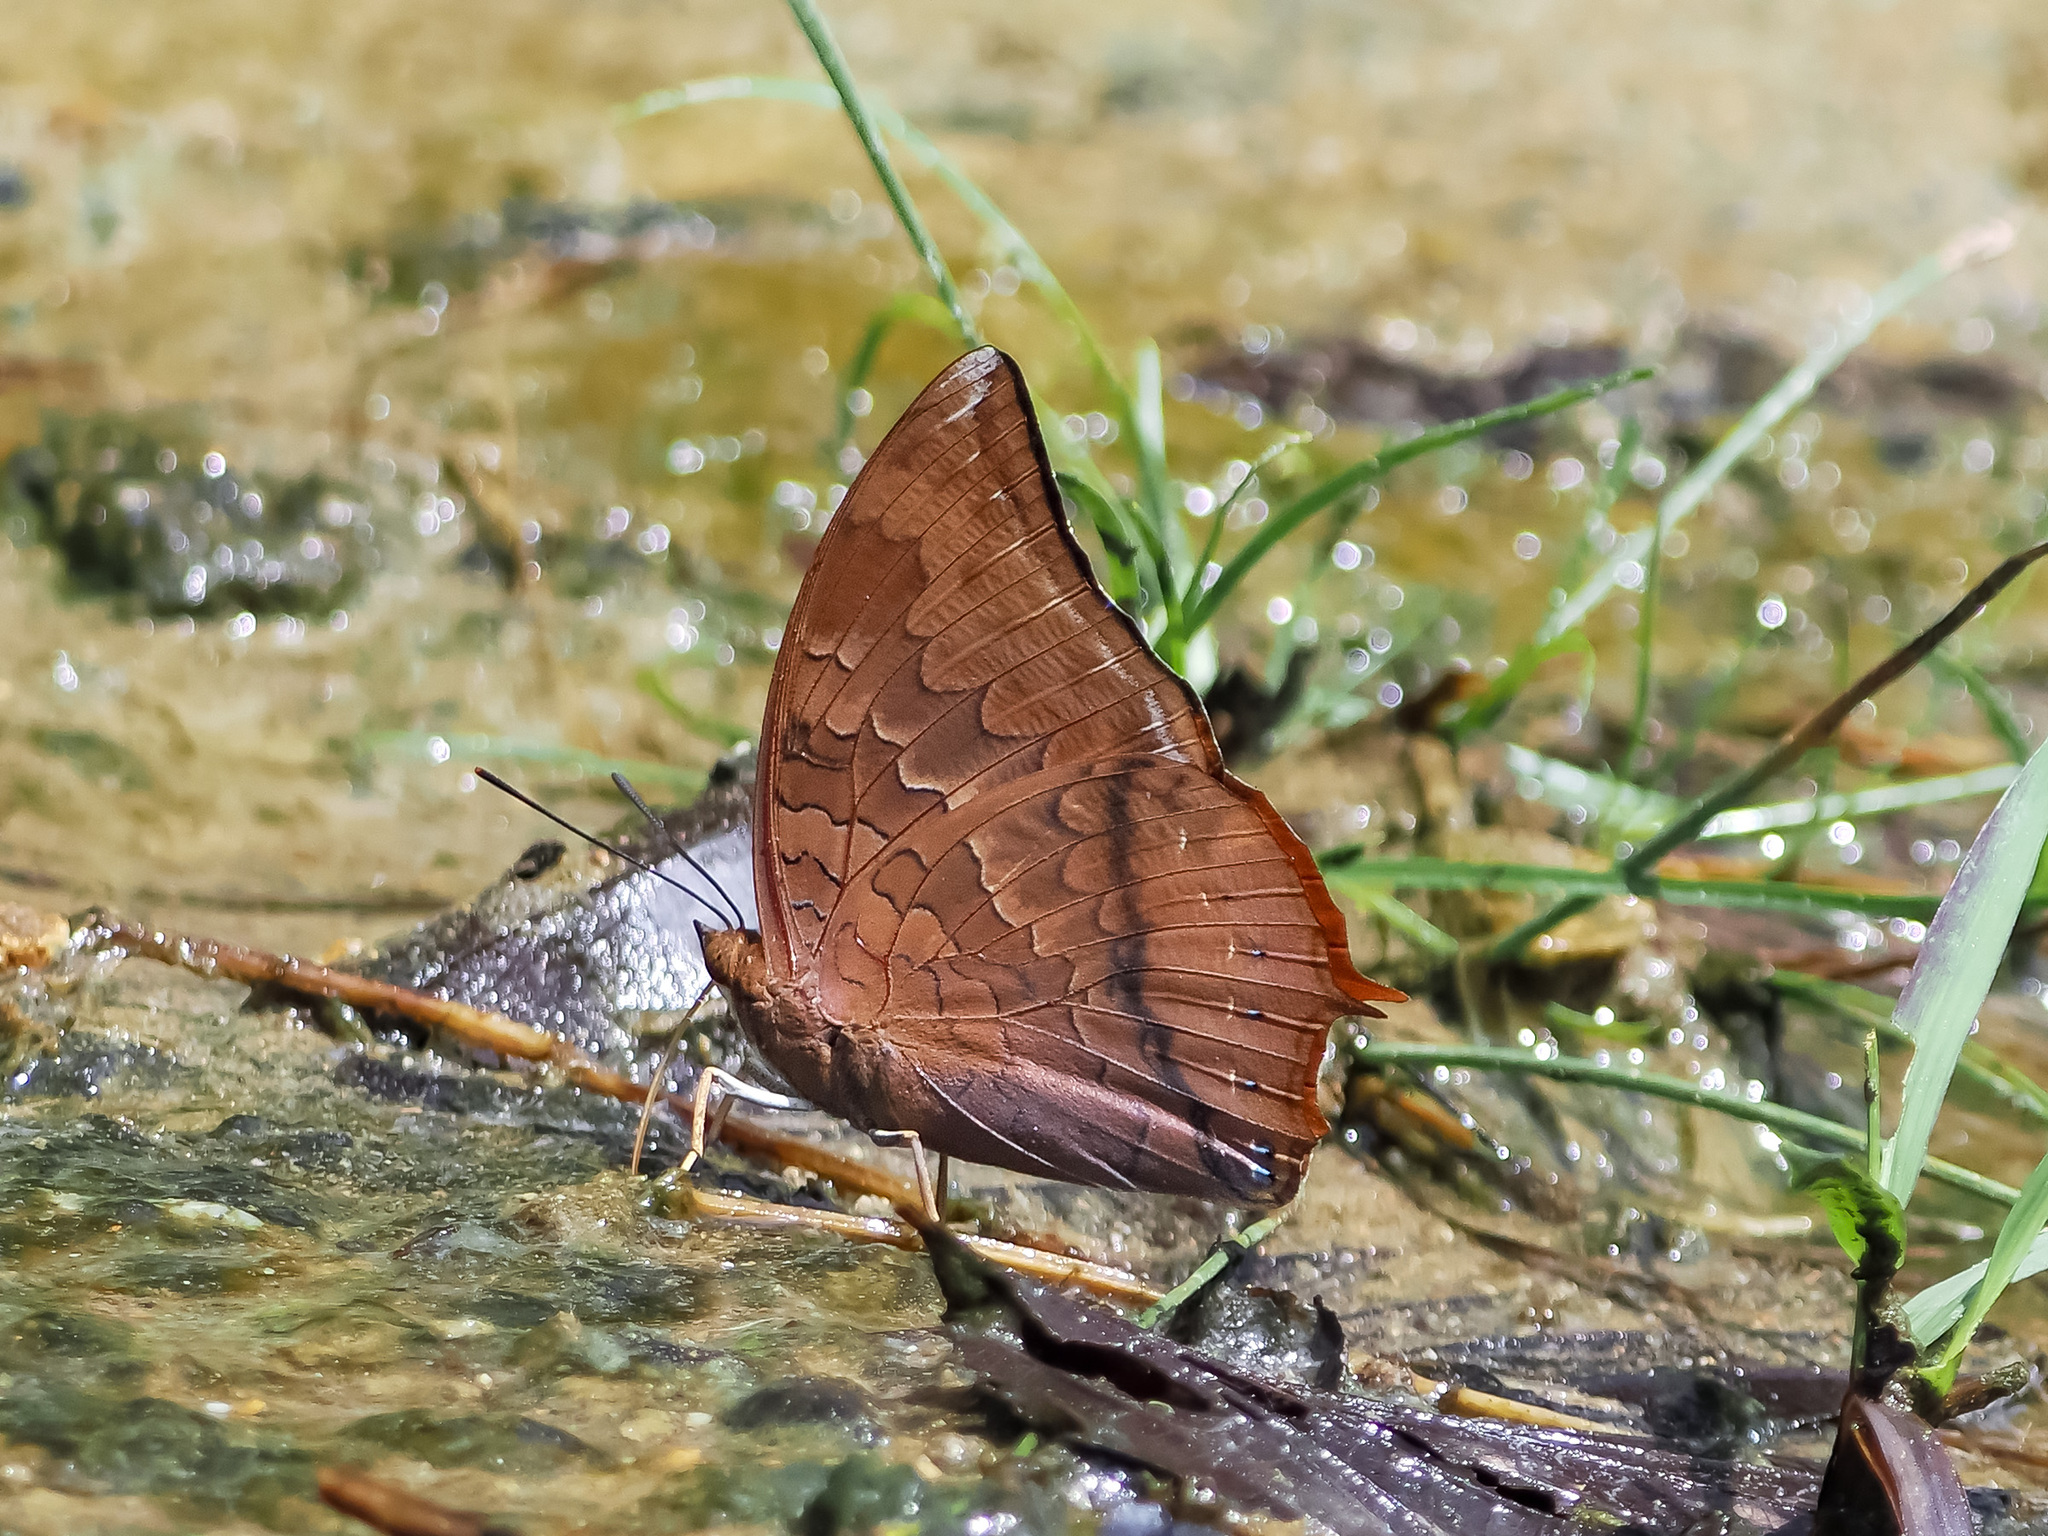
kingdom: Animalia
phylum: Arthropoda
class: Insecta
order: Lepidoptera
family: Nymphalidae
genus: Charaxes
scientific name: Charaxes bernardus
